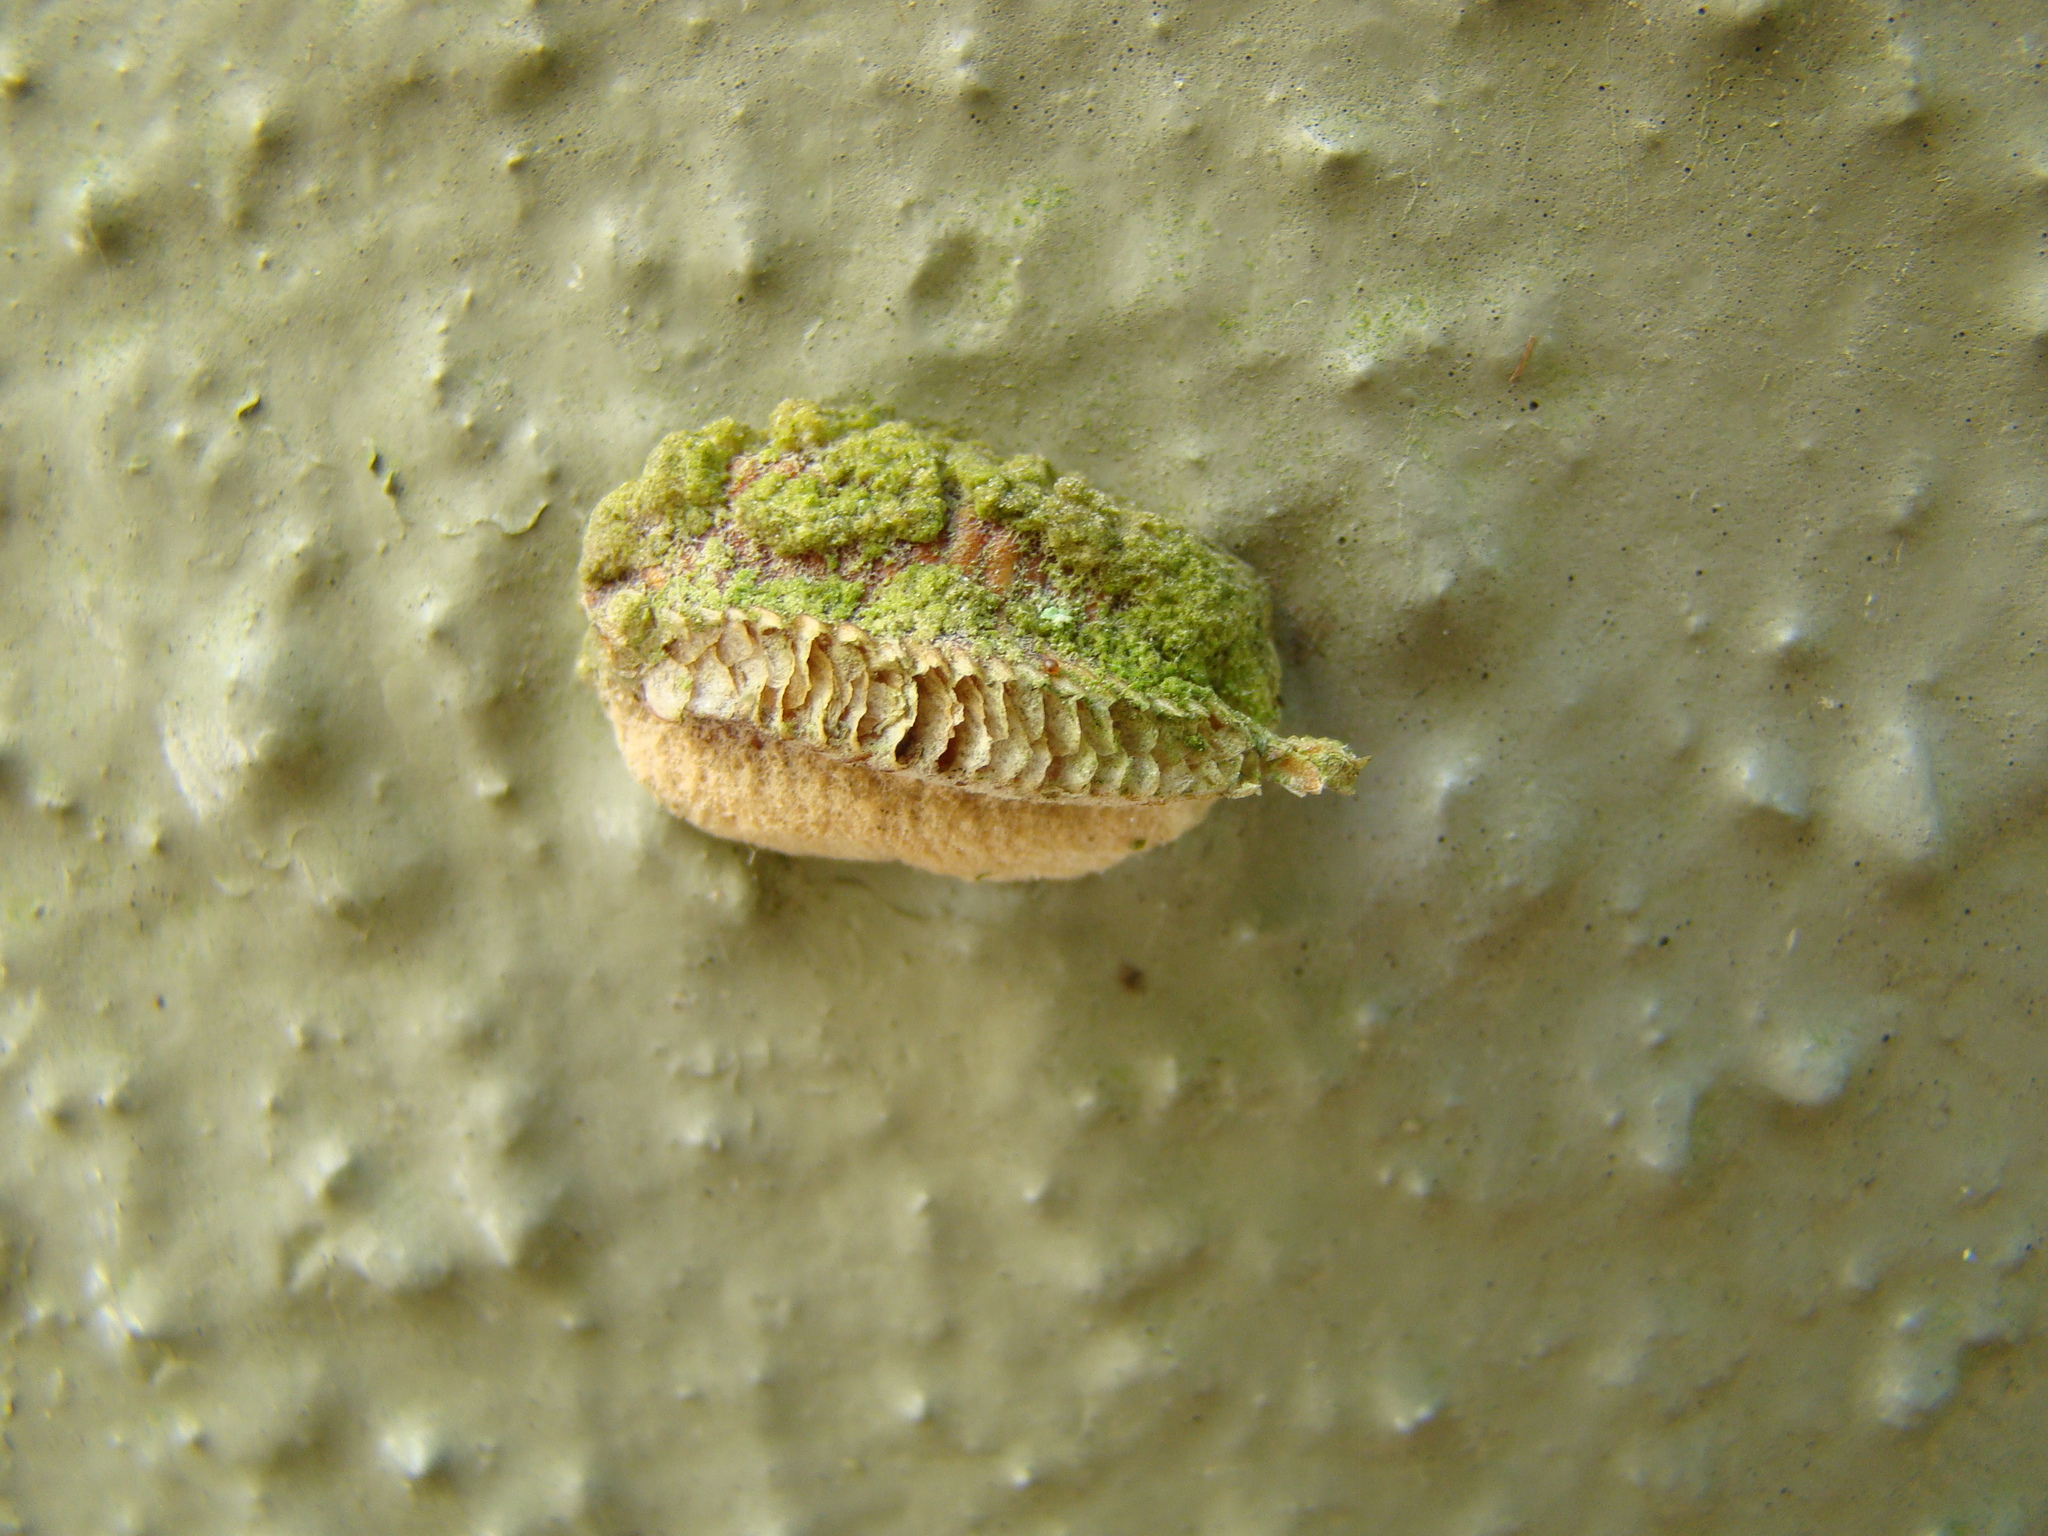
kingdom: Animalia
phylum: Arthropoda
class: Insecta
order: Mantodea
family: Miomantidae
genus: Miomantis
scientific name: Miomantis caffra
